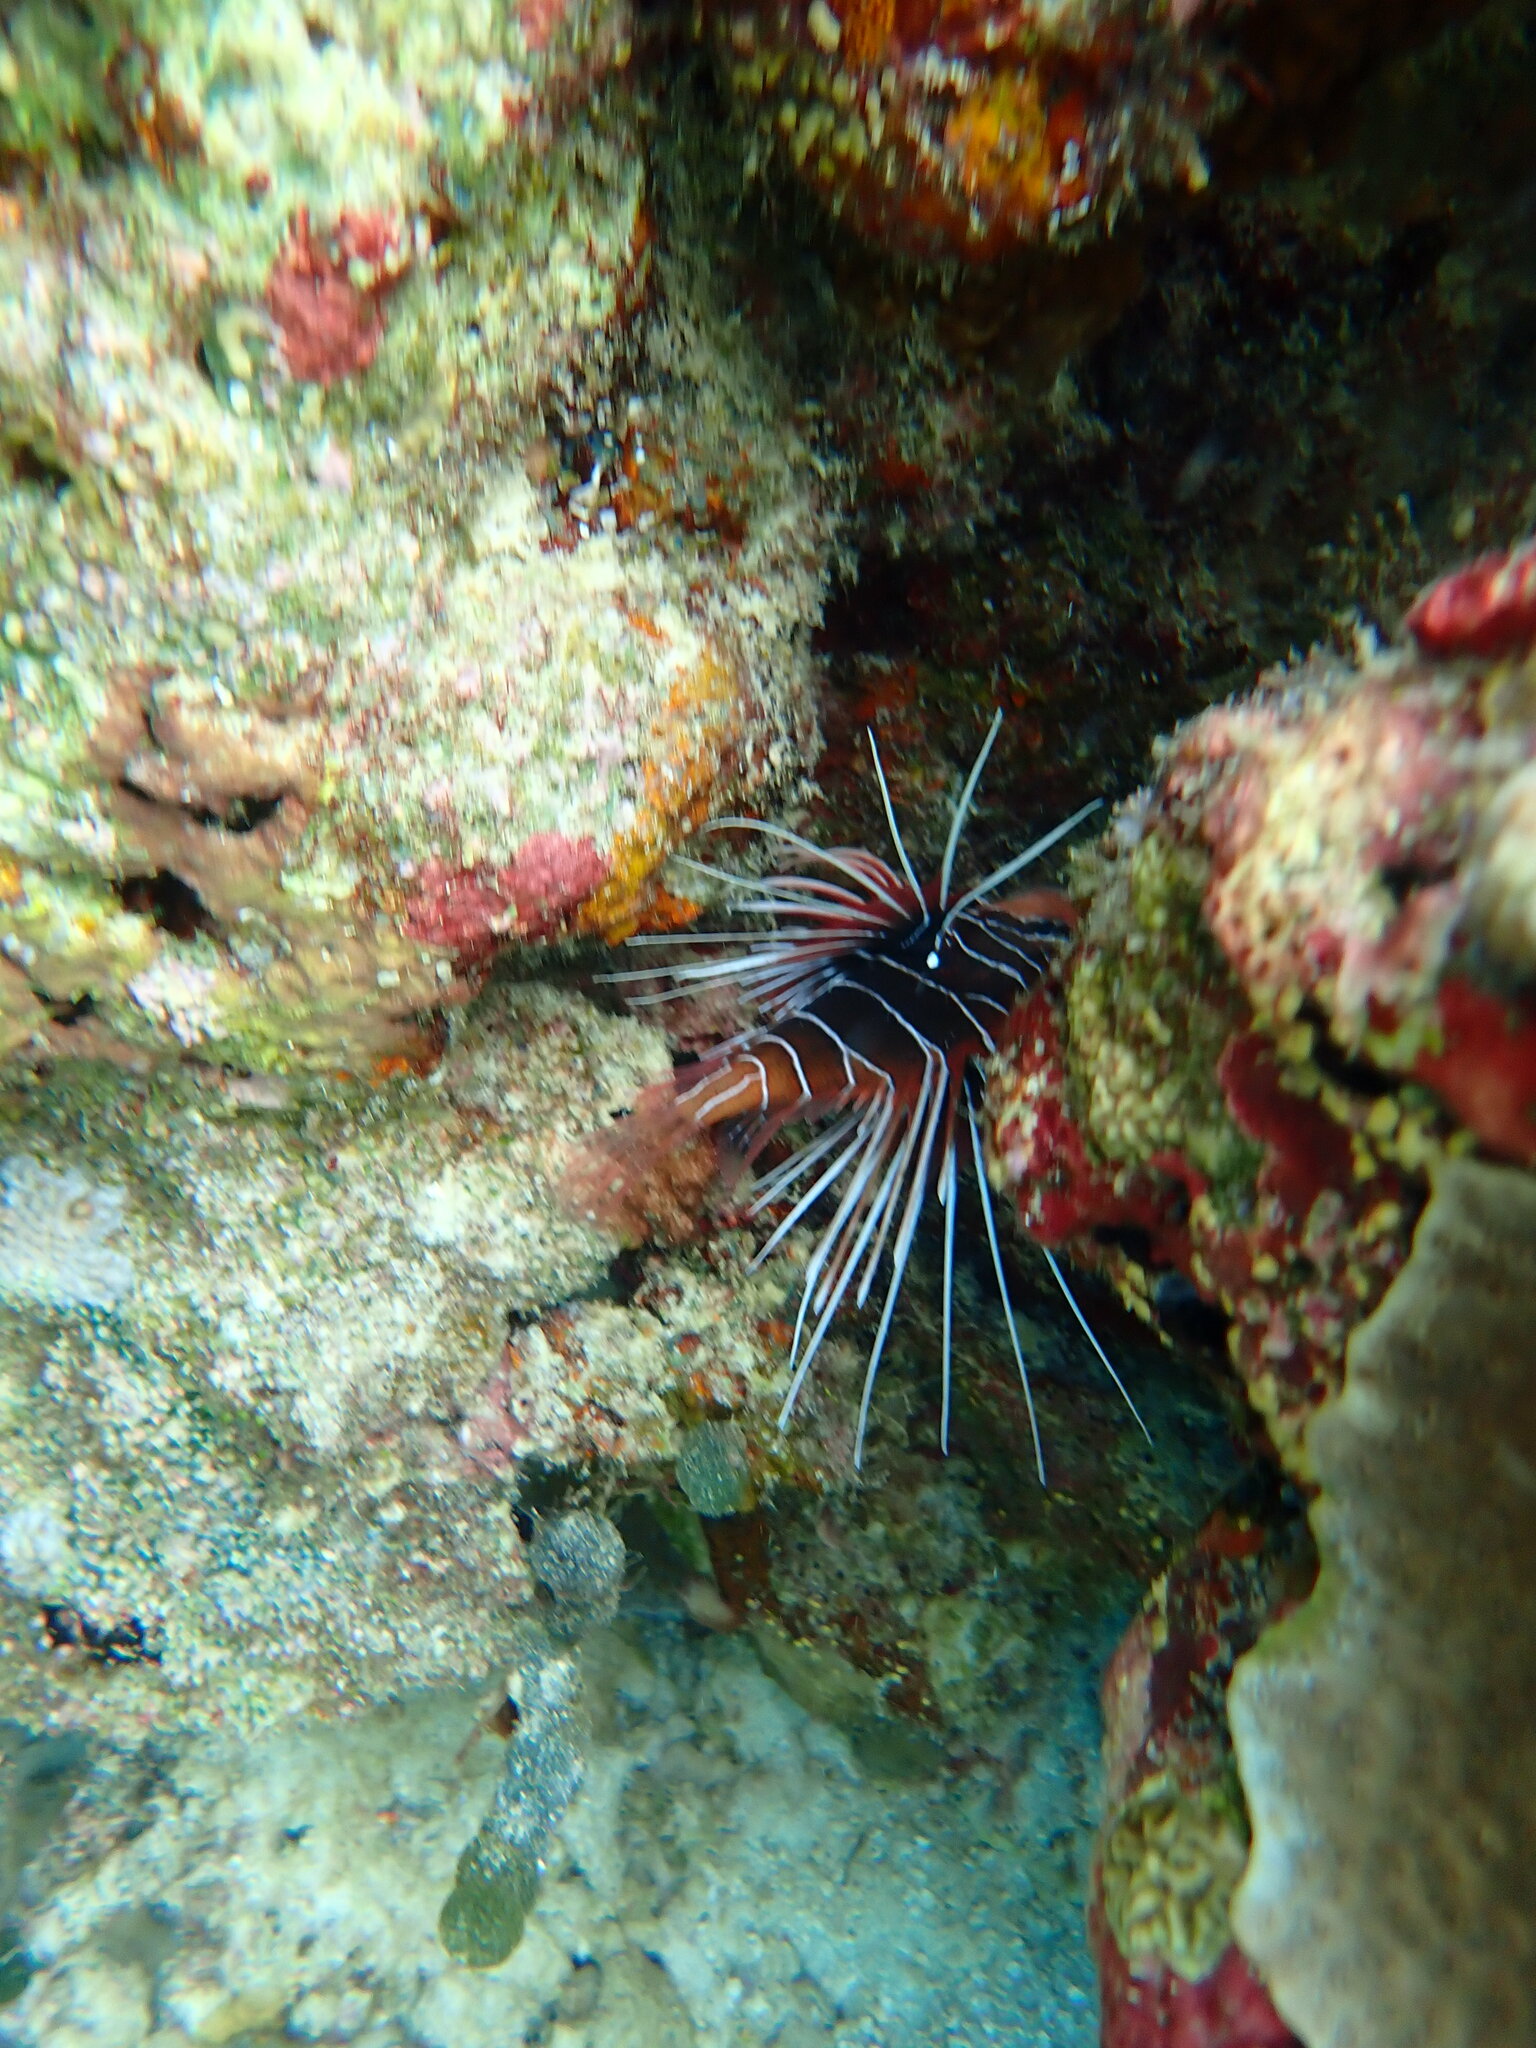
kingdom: Animalia
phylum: Chordata
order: Scorpaeniformes
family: Scorpaenidae
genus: Pterois
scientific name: Pterois radiata
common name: Radial firefish
